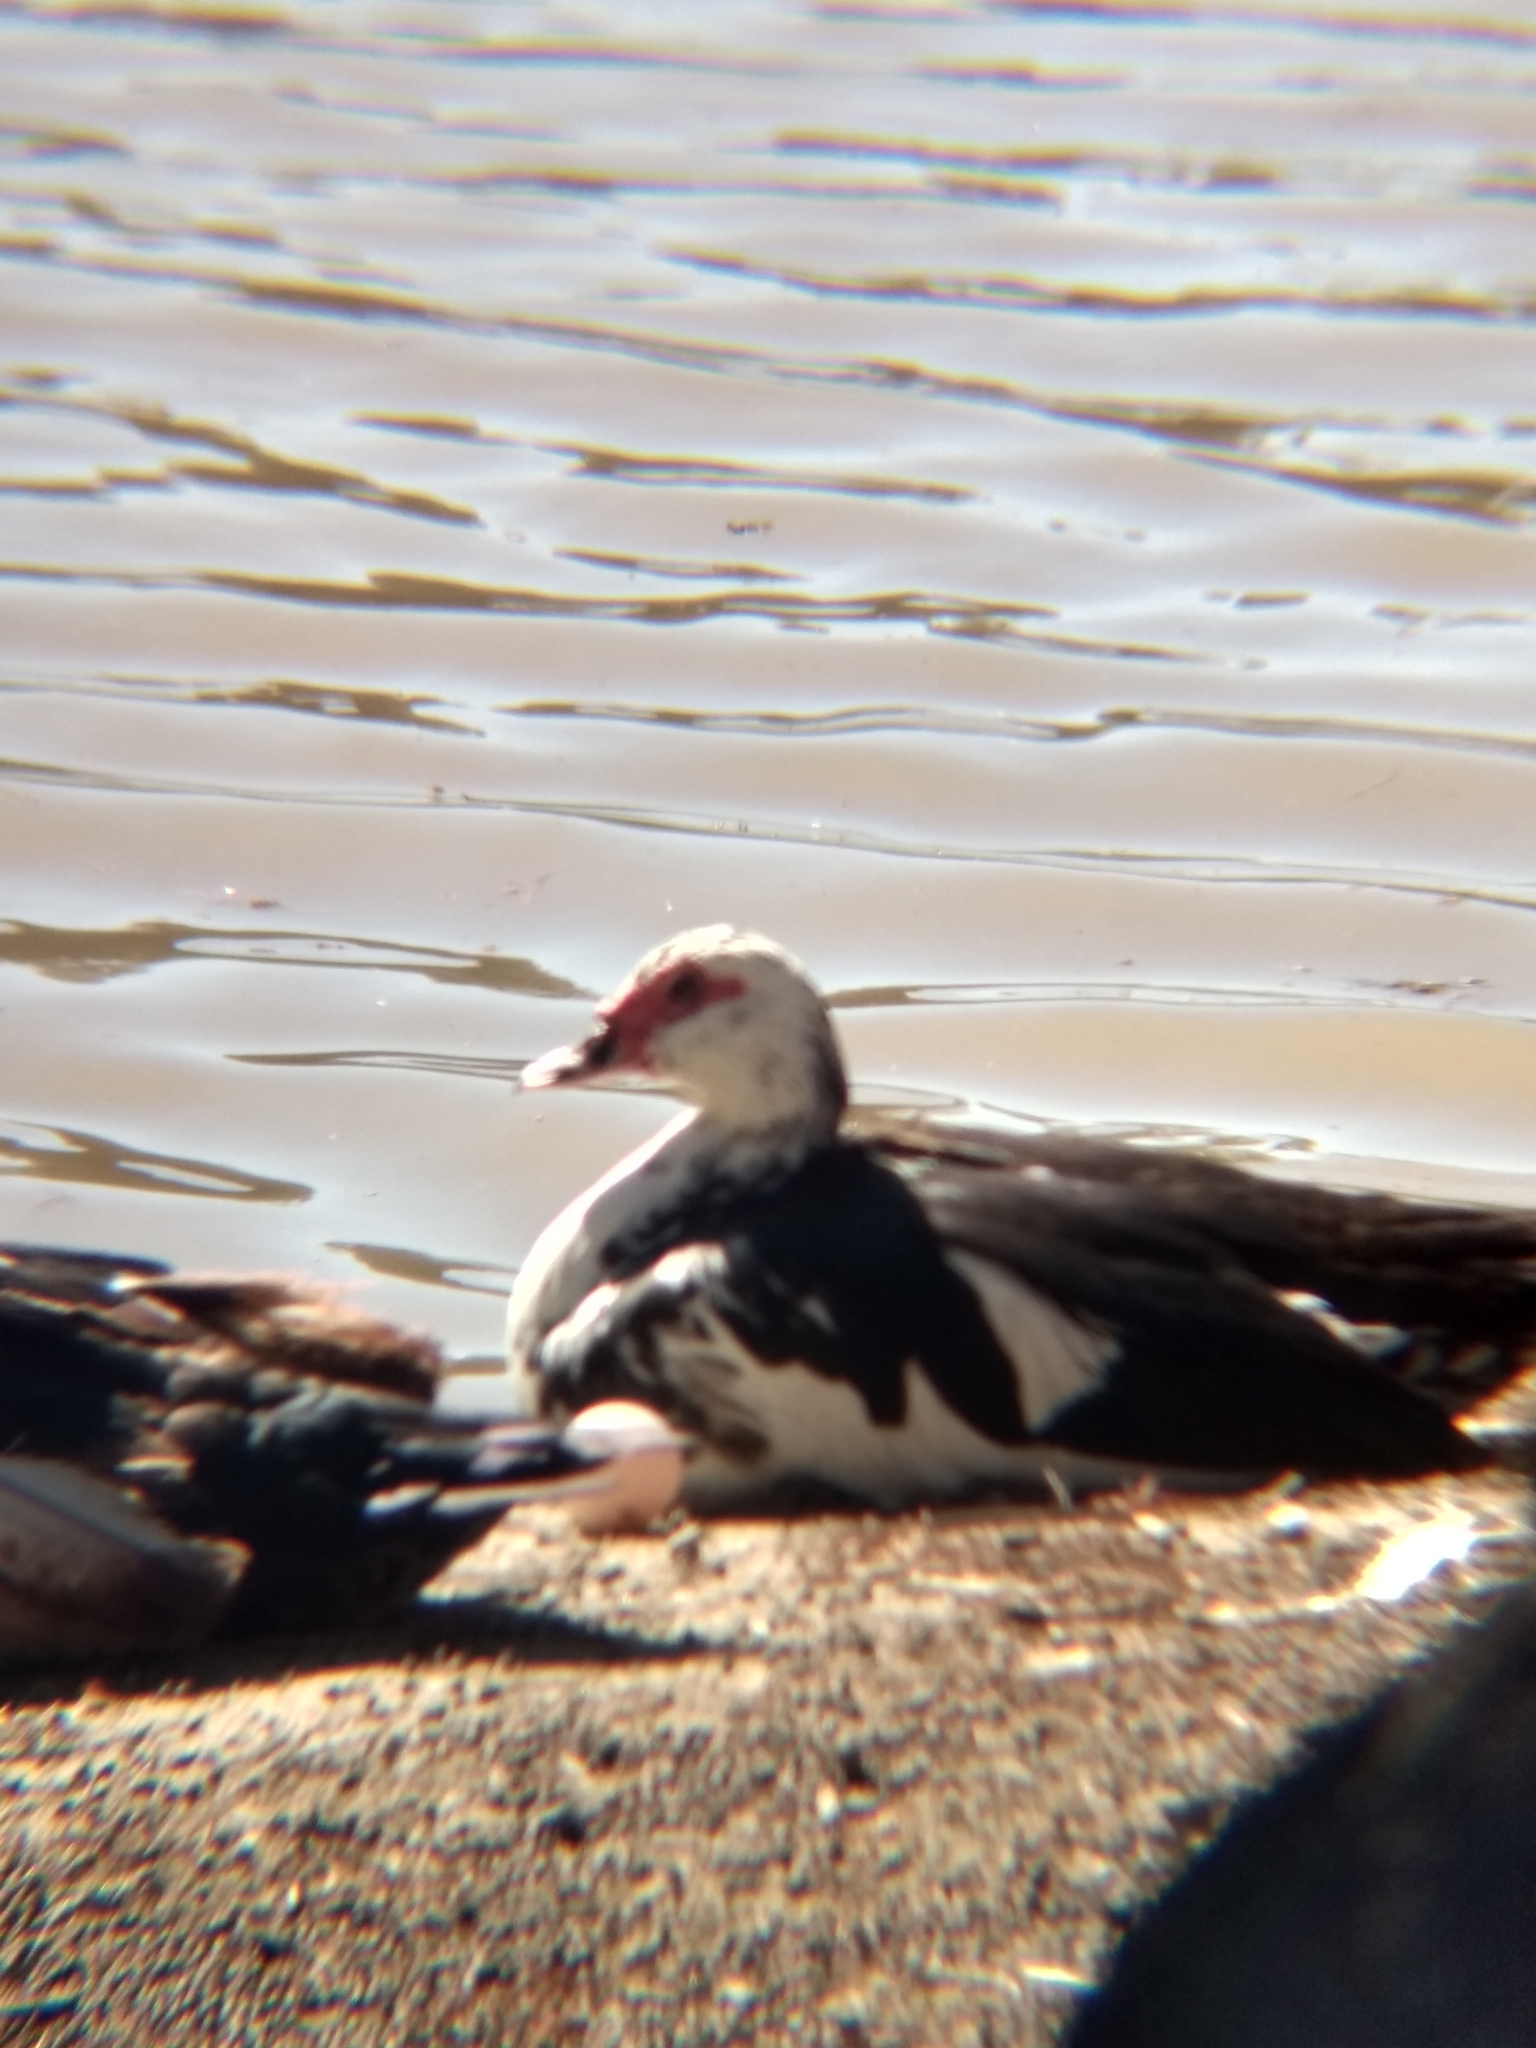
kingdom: Animalia
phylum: Chordata
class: Aves
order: Anseriformes
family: Anatidae
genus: Cairina
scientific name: Cairina moschata
